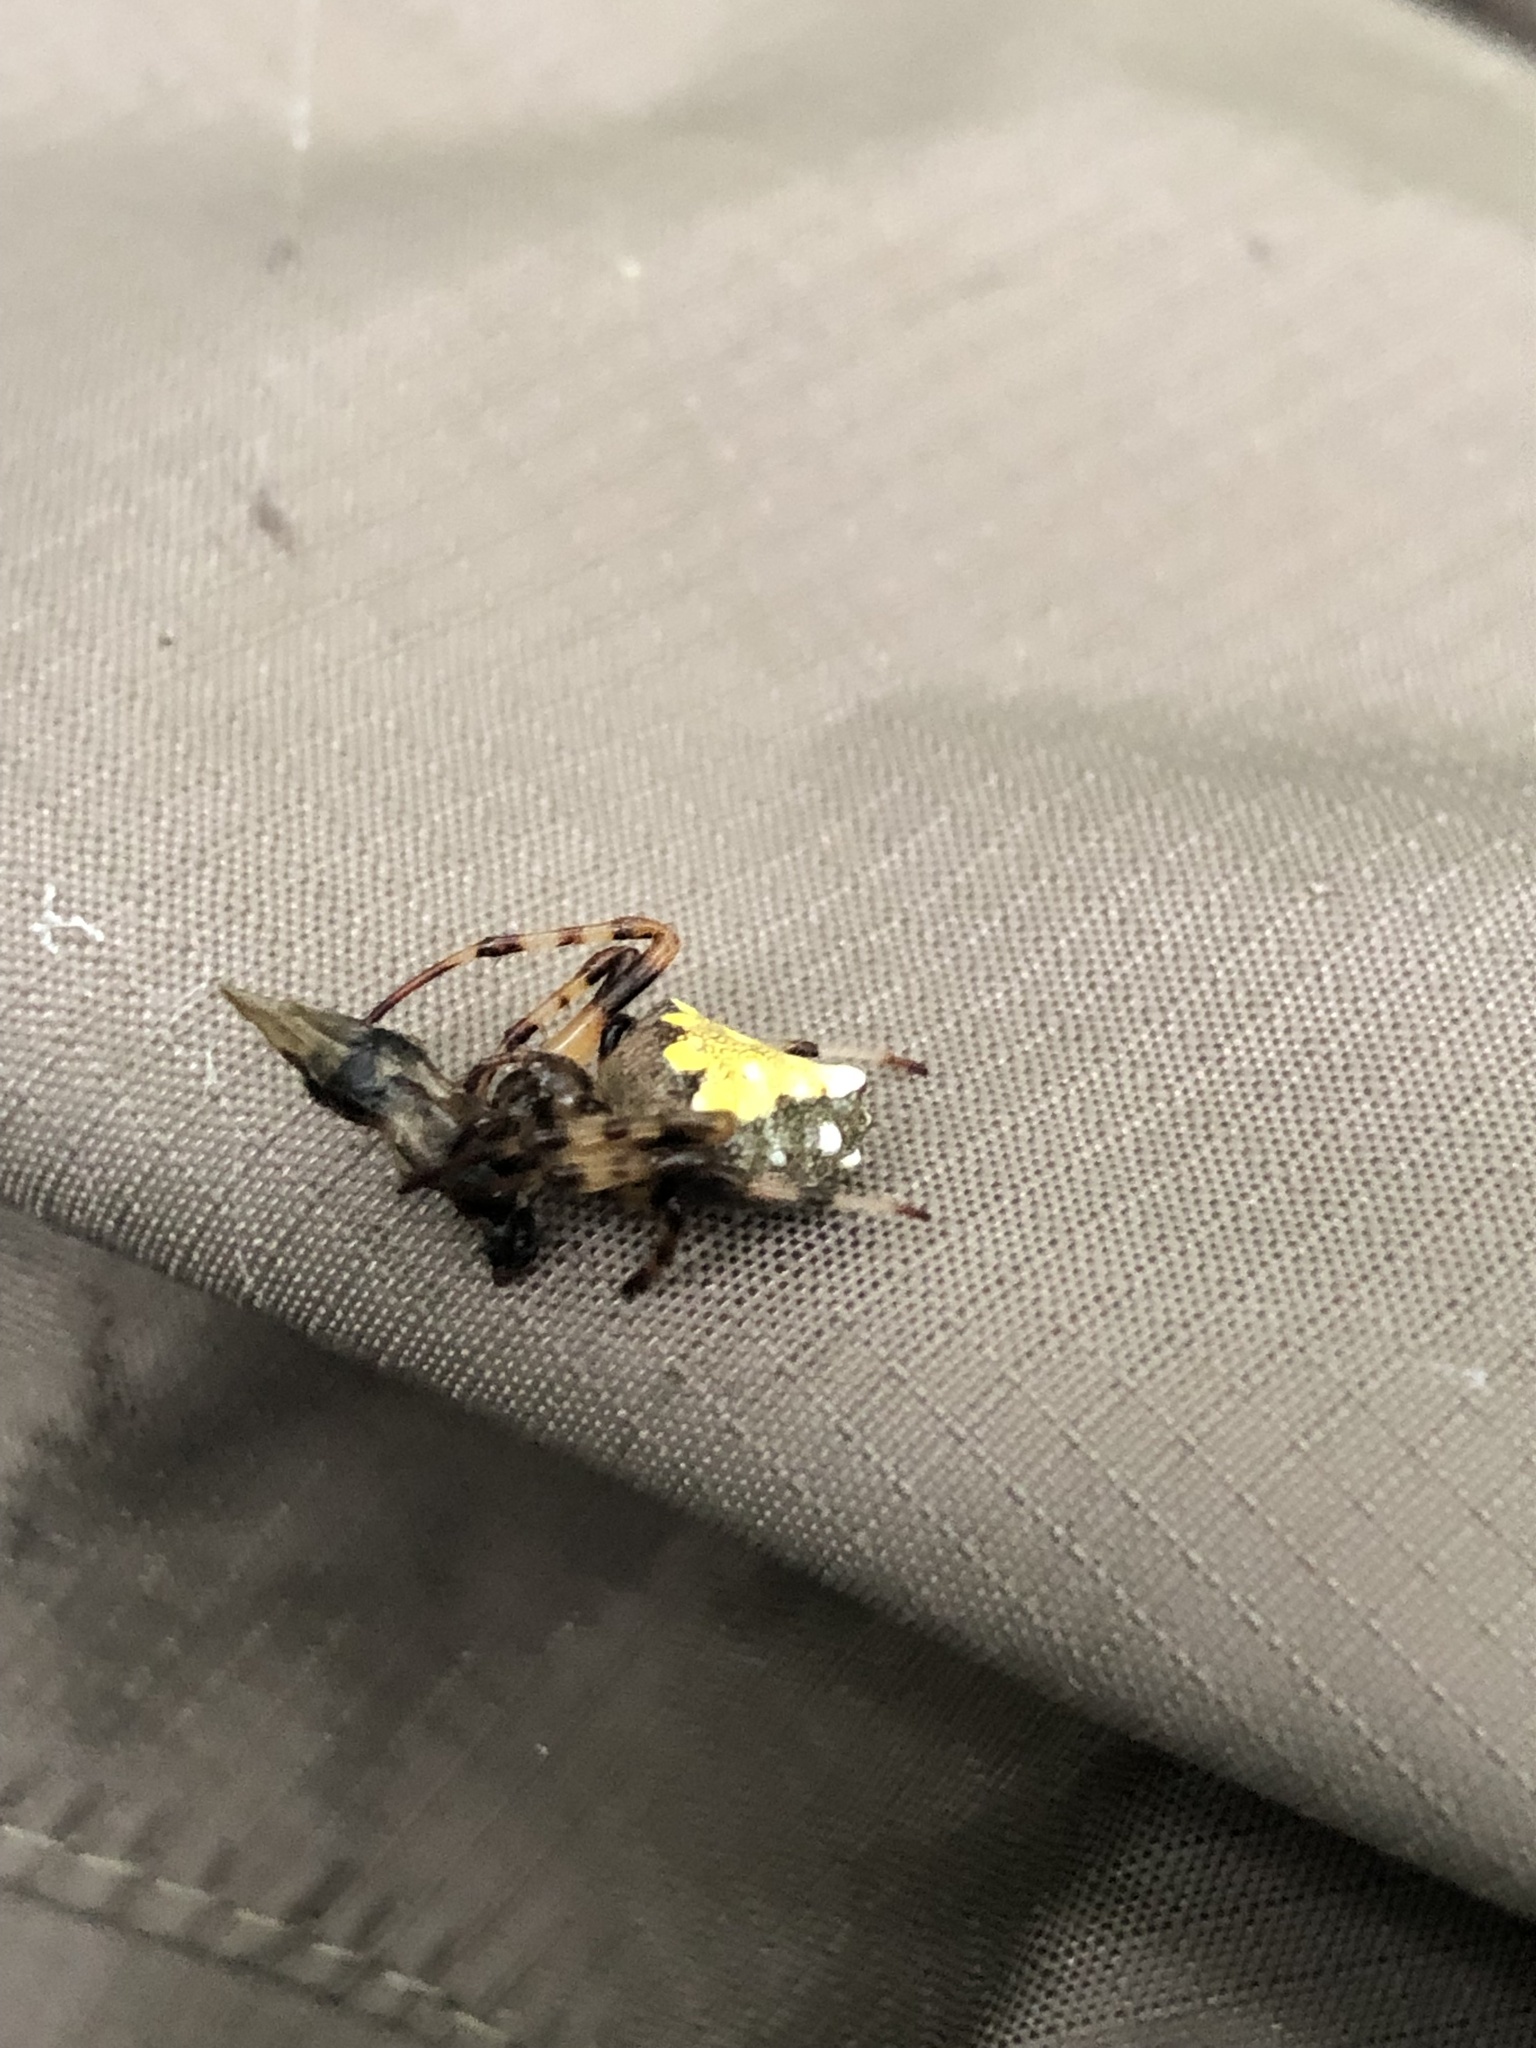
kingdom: Animalia
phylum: Arthropoda
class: Arachnida
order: Araneae
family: Araneidae
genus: Verrucosa
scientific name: Verrucosa arenata
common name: Orb weavers
